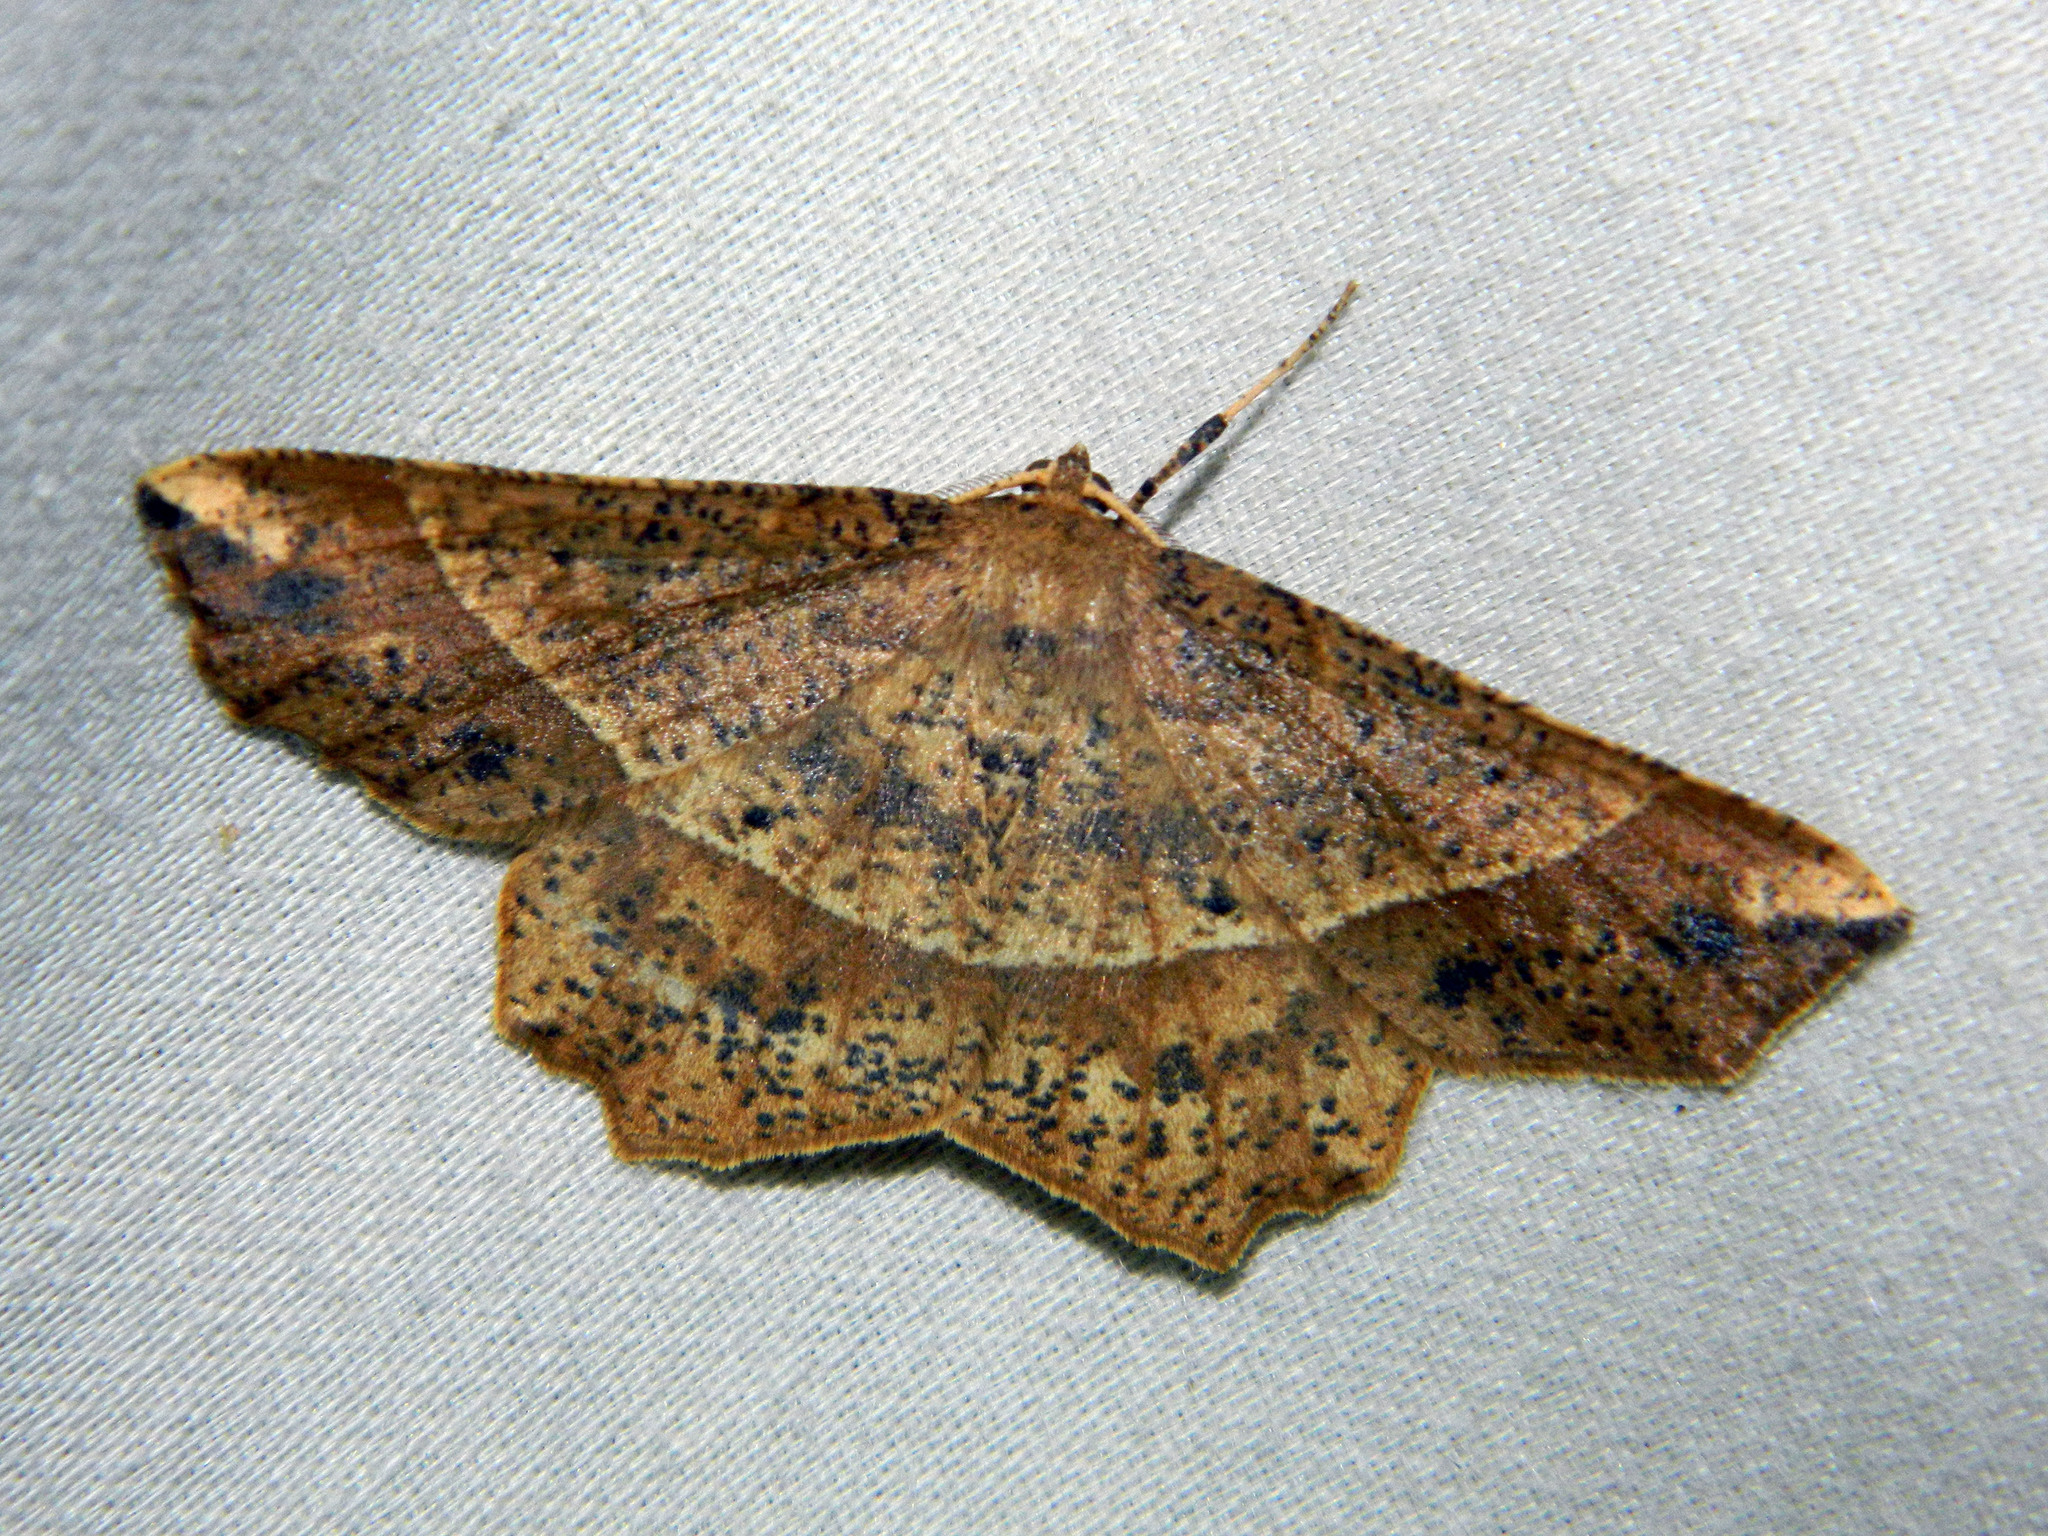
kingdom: Animalia
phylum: Arthropoda
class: Insecta
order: Lepidoptera
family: Geometridae
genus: Euchlaena
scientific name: Euchlaena tigrinaria
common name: Mottled euchlaena moth
